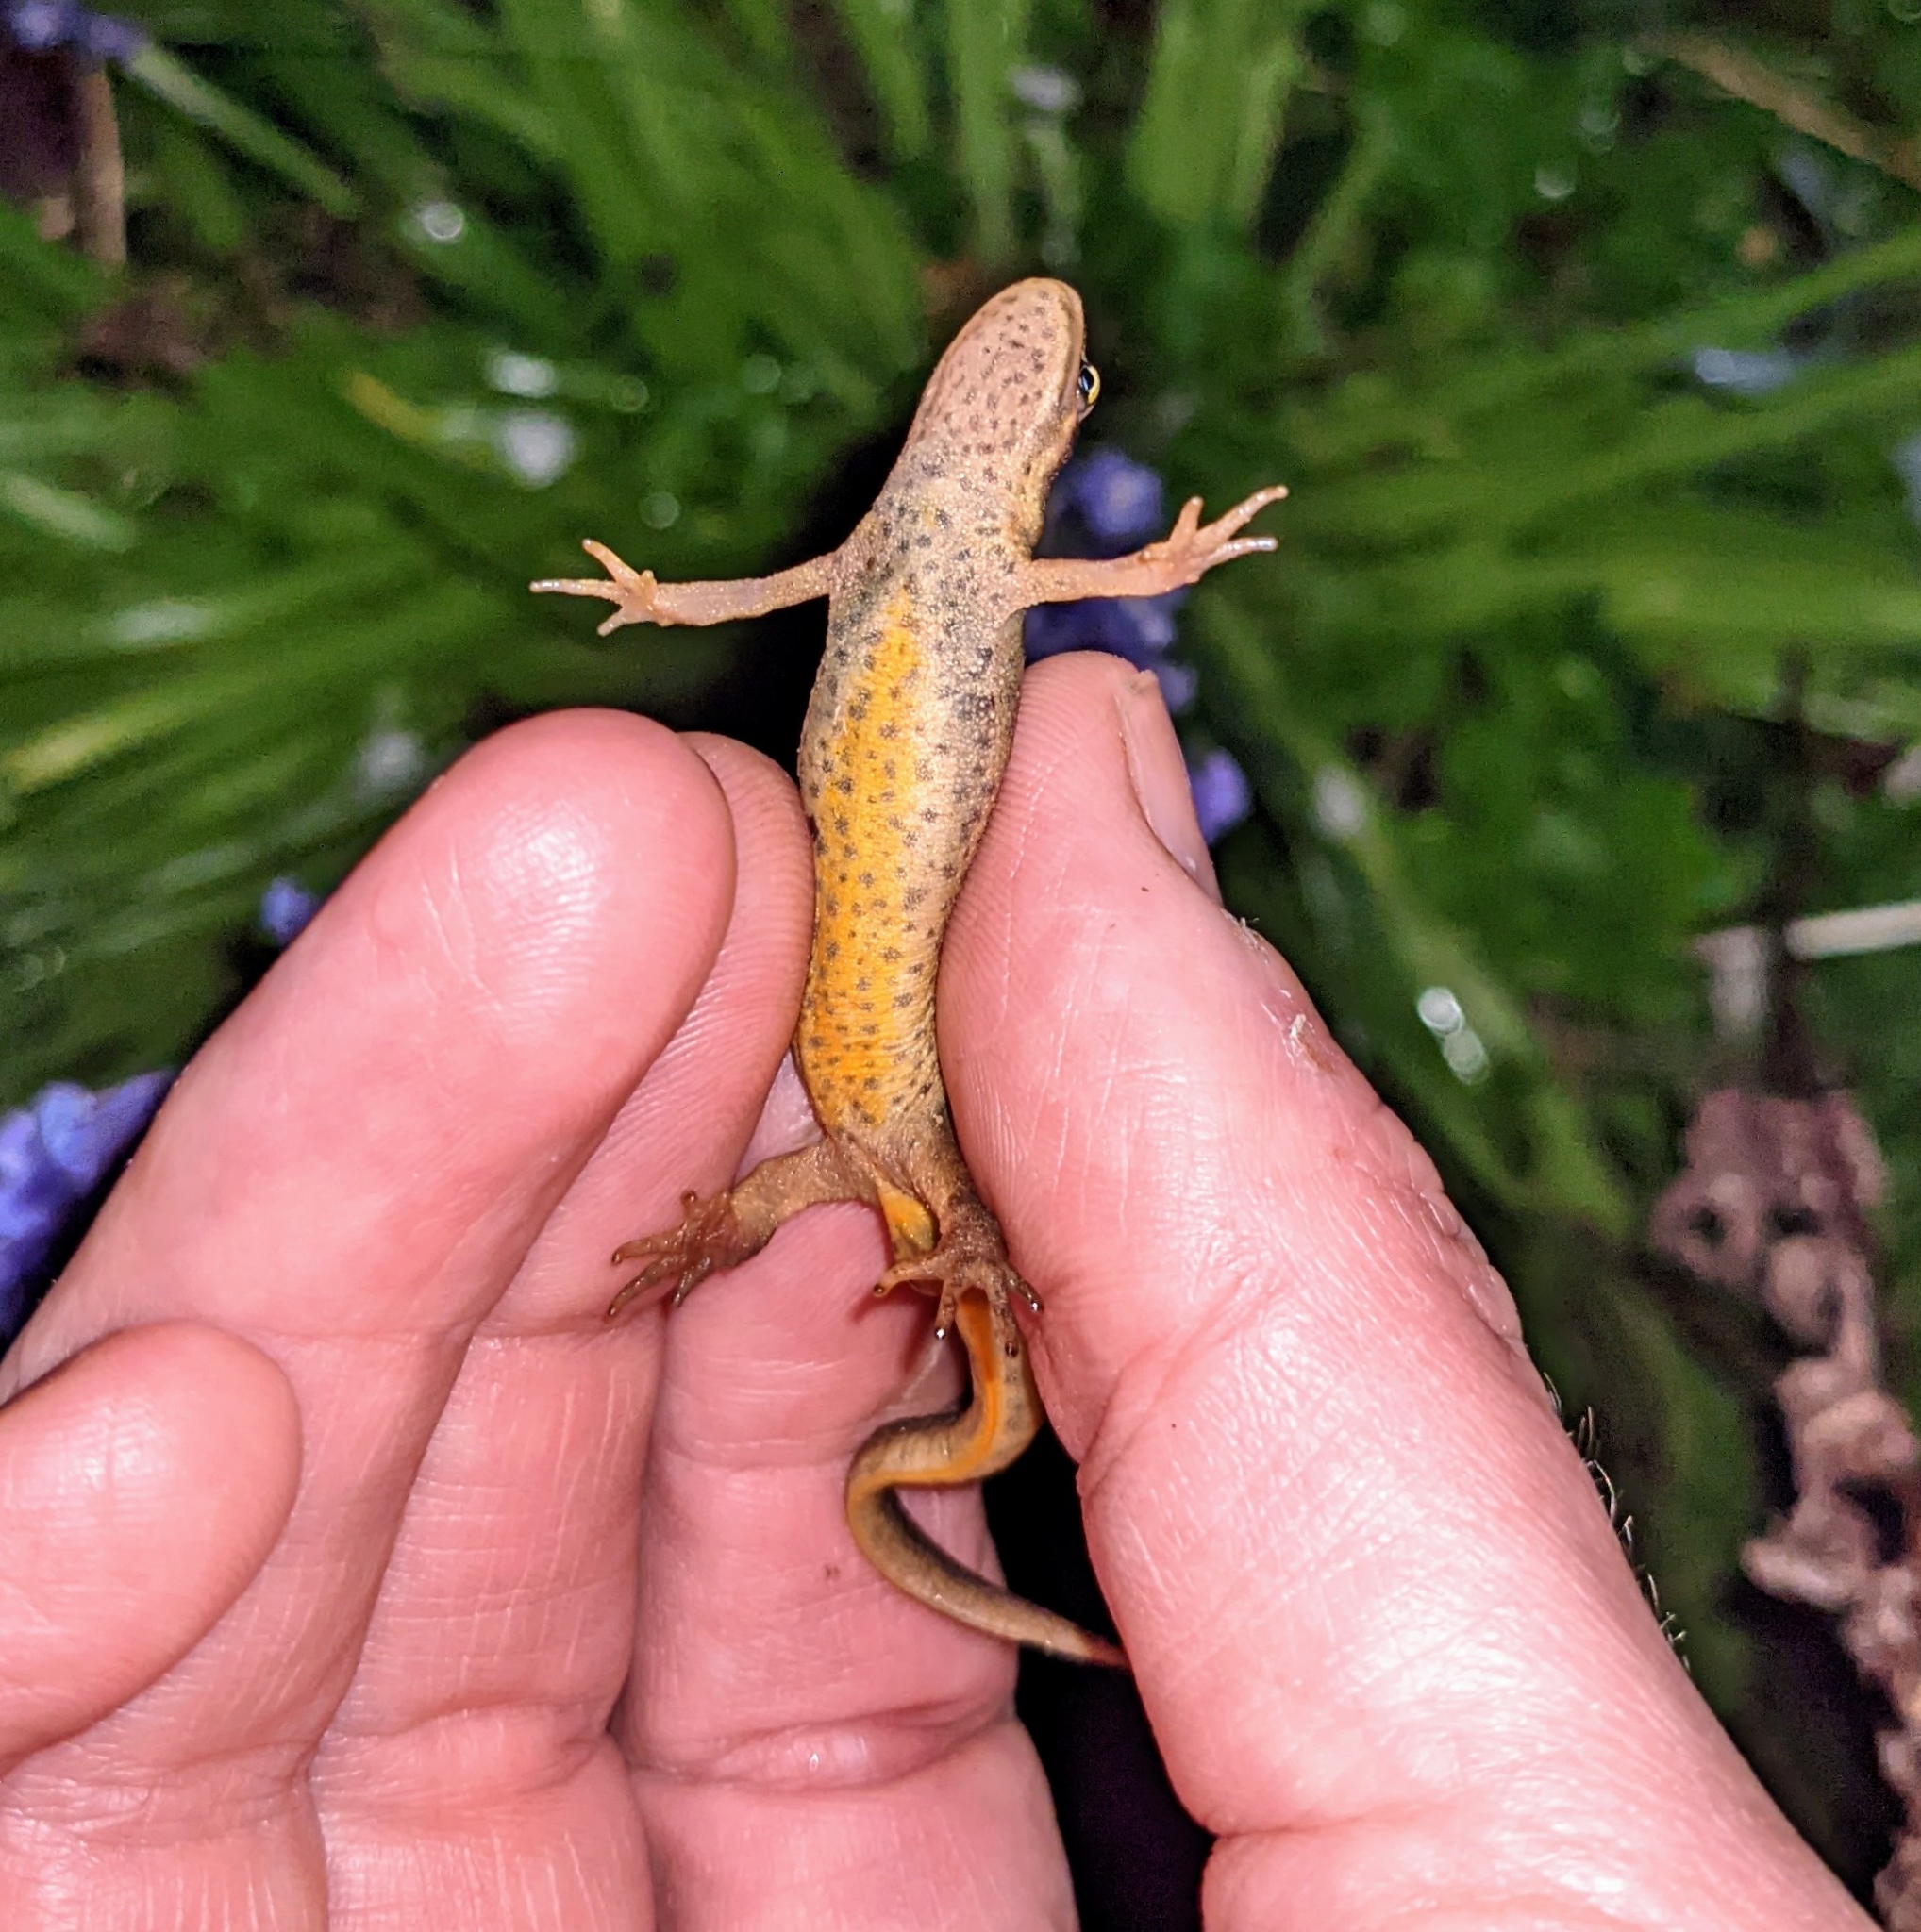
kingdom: Animalia
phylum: Chordata
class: Amphibia
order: Caudata
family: Salamandridae
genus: Lissotriton
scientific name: Lissotriton vulgaris
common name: Smooth newt
